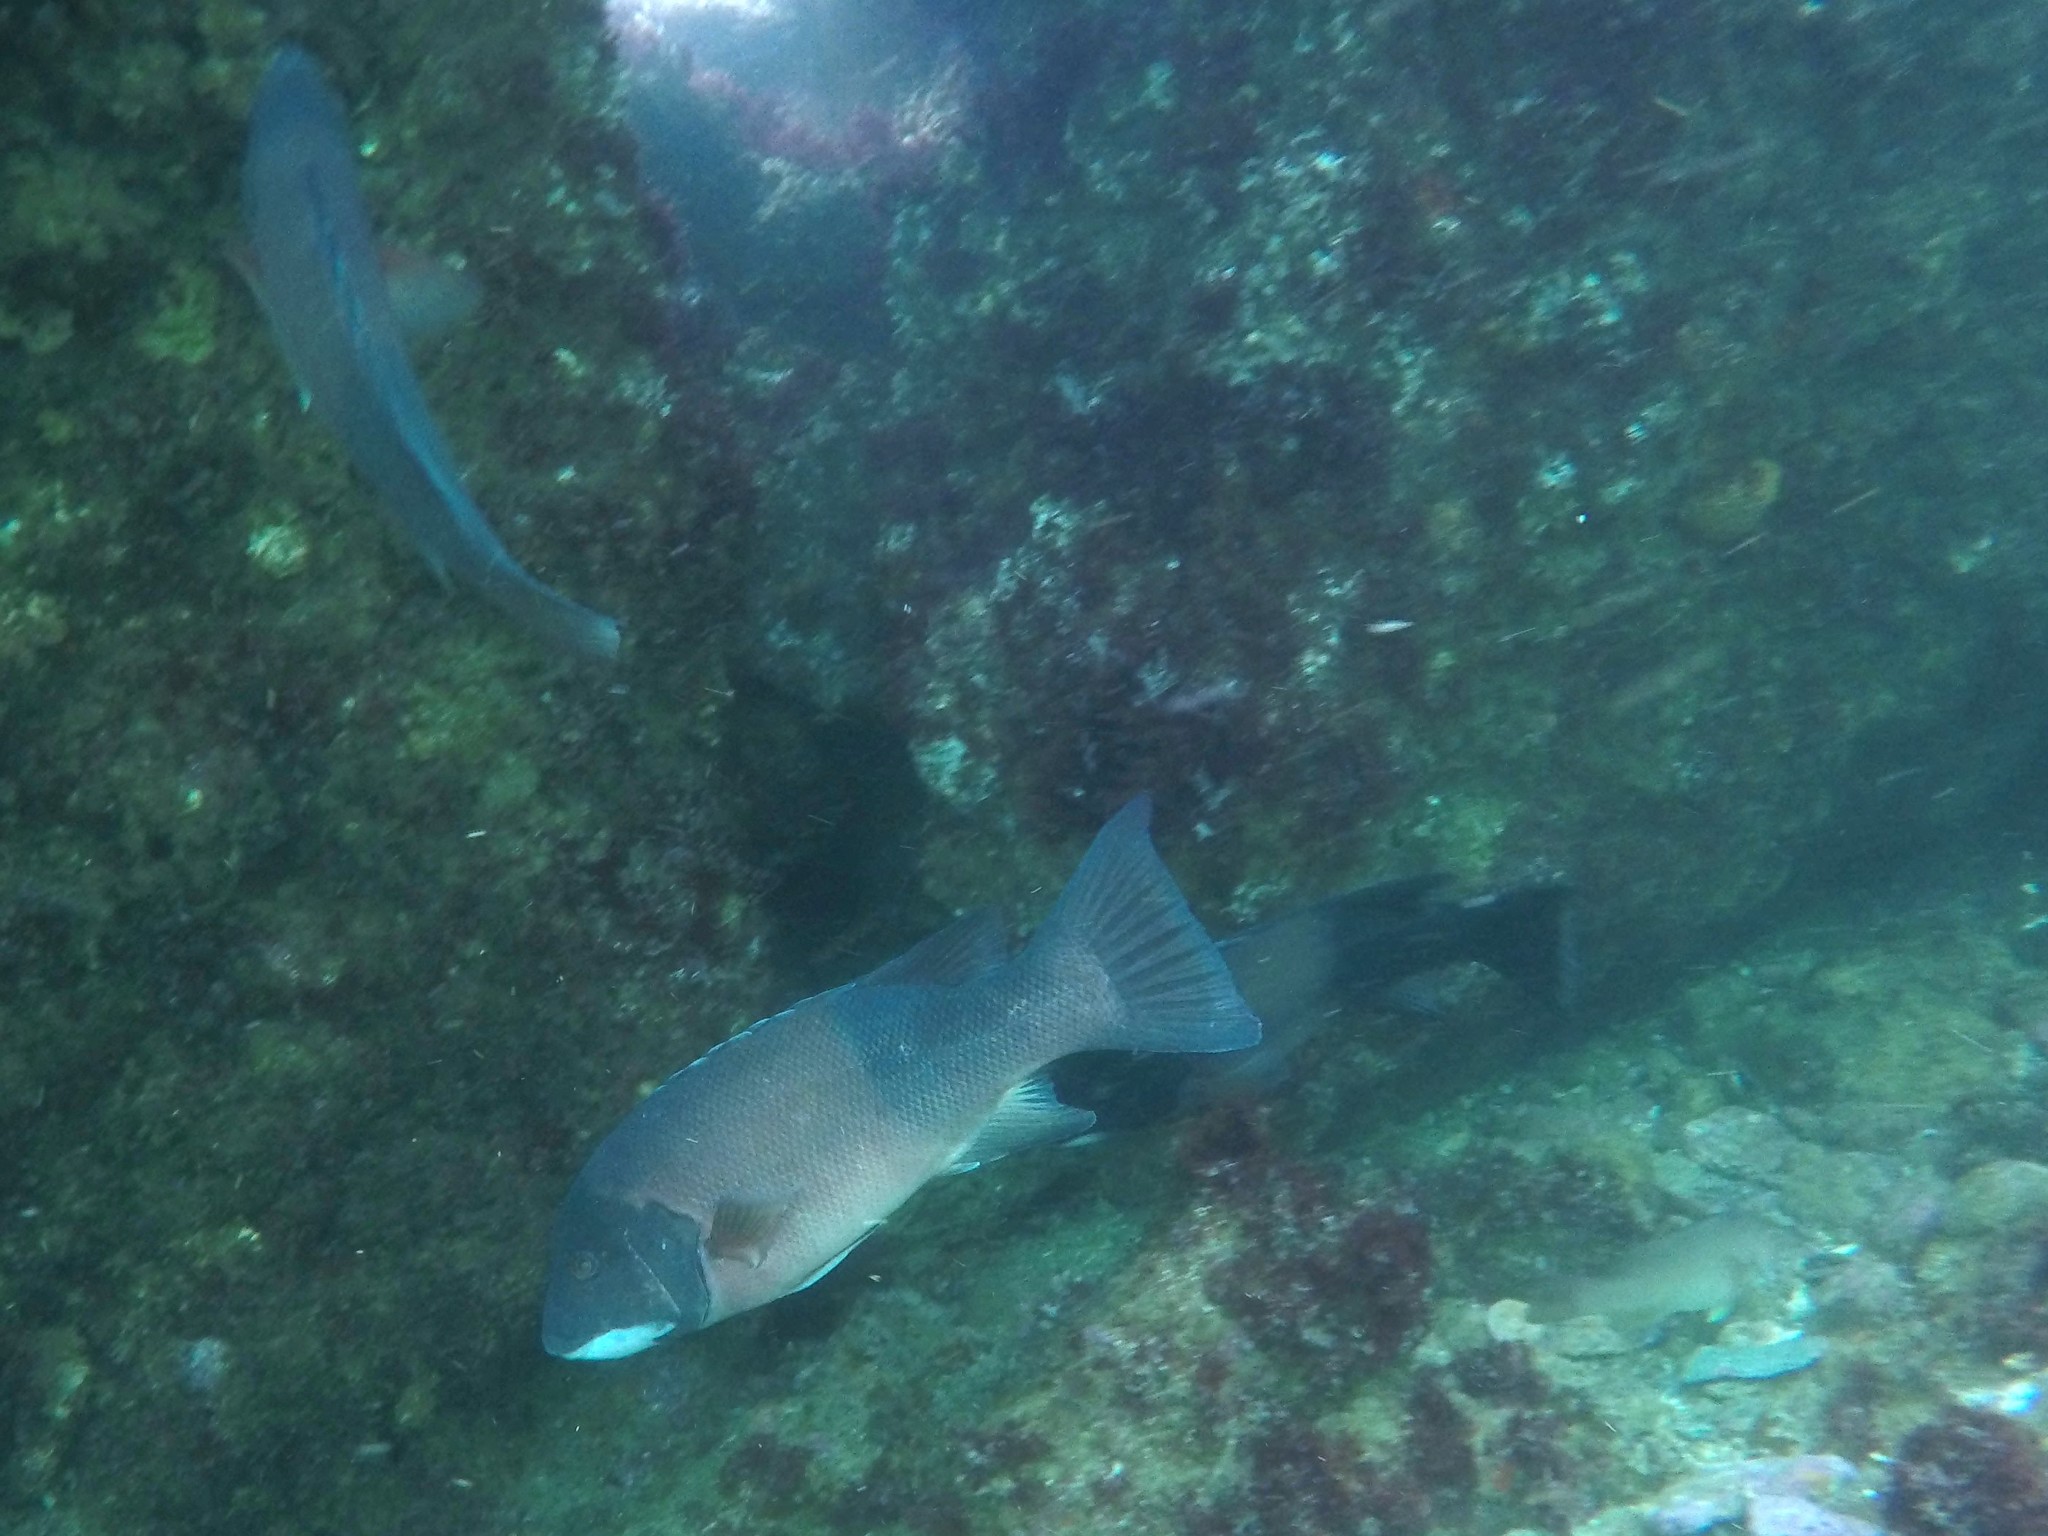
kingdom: Animalia
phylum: Chordata
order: Perciformes
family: Labridae
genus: Semicossyphus
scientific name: Semicossyphus pulcher
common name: California sheephead
